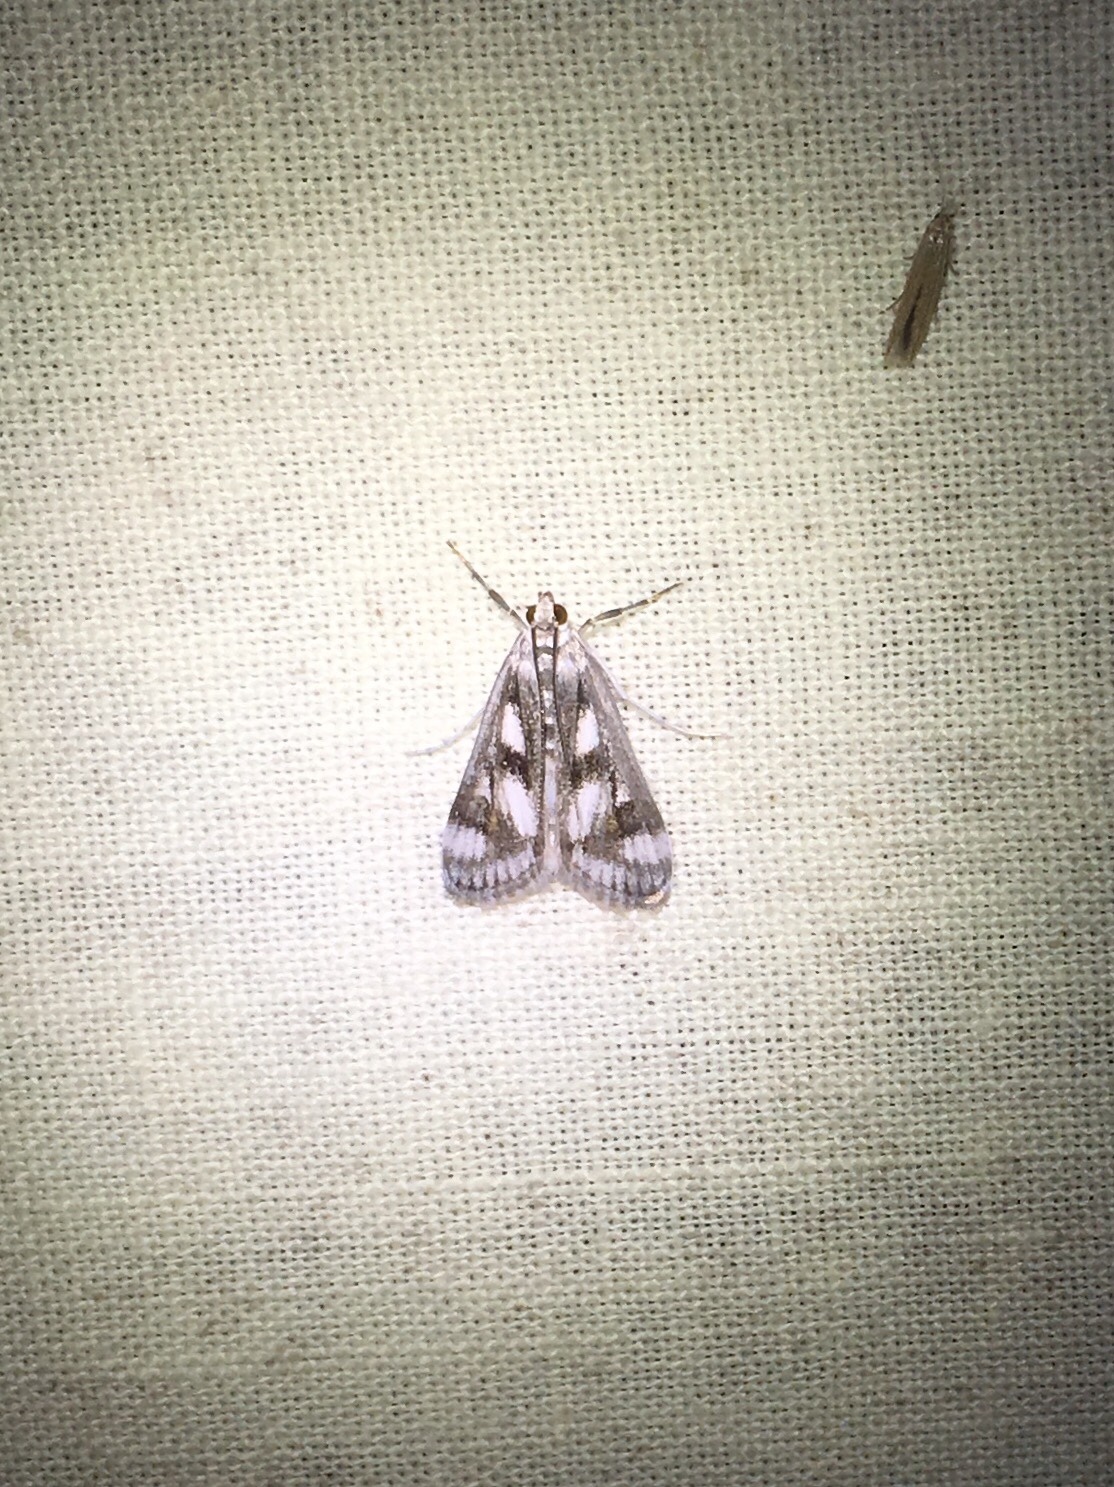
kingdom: Animalia
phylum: Arthropoda
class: Insecta
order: Lepidoptera
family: Crambidae
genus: Parapoynx
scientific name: Parapoynx maculalis
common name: Polymorphic pondweed moth
